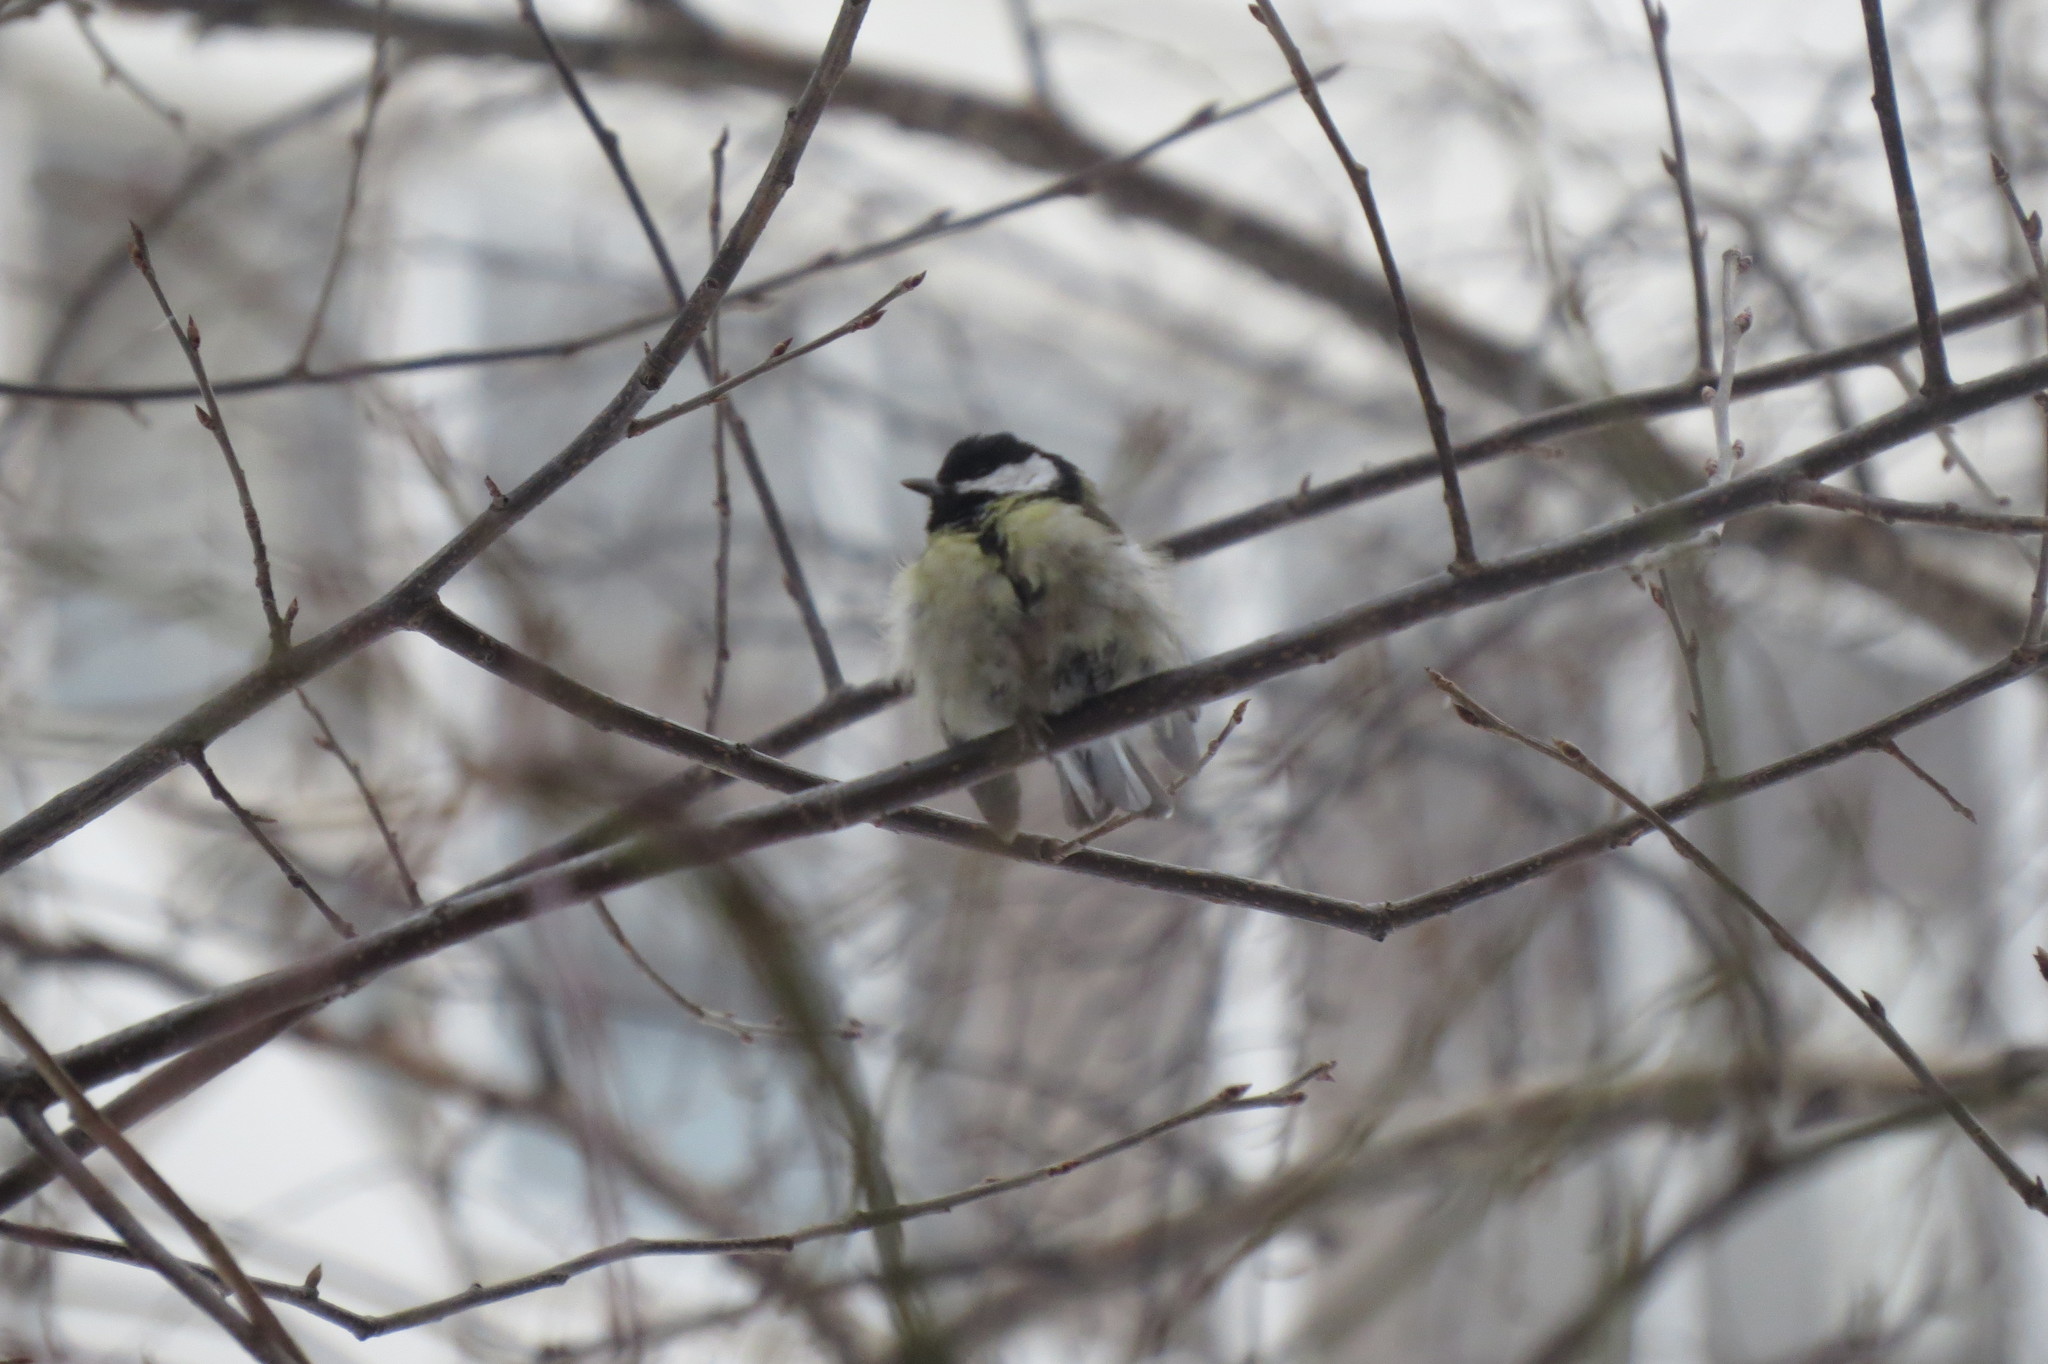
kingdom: Animalia
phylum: Chordata
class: Aves
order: Passeriformes
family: Paridae
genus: Parus
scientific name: Parus major
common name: Great tit
